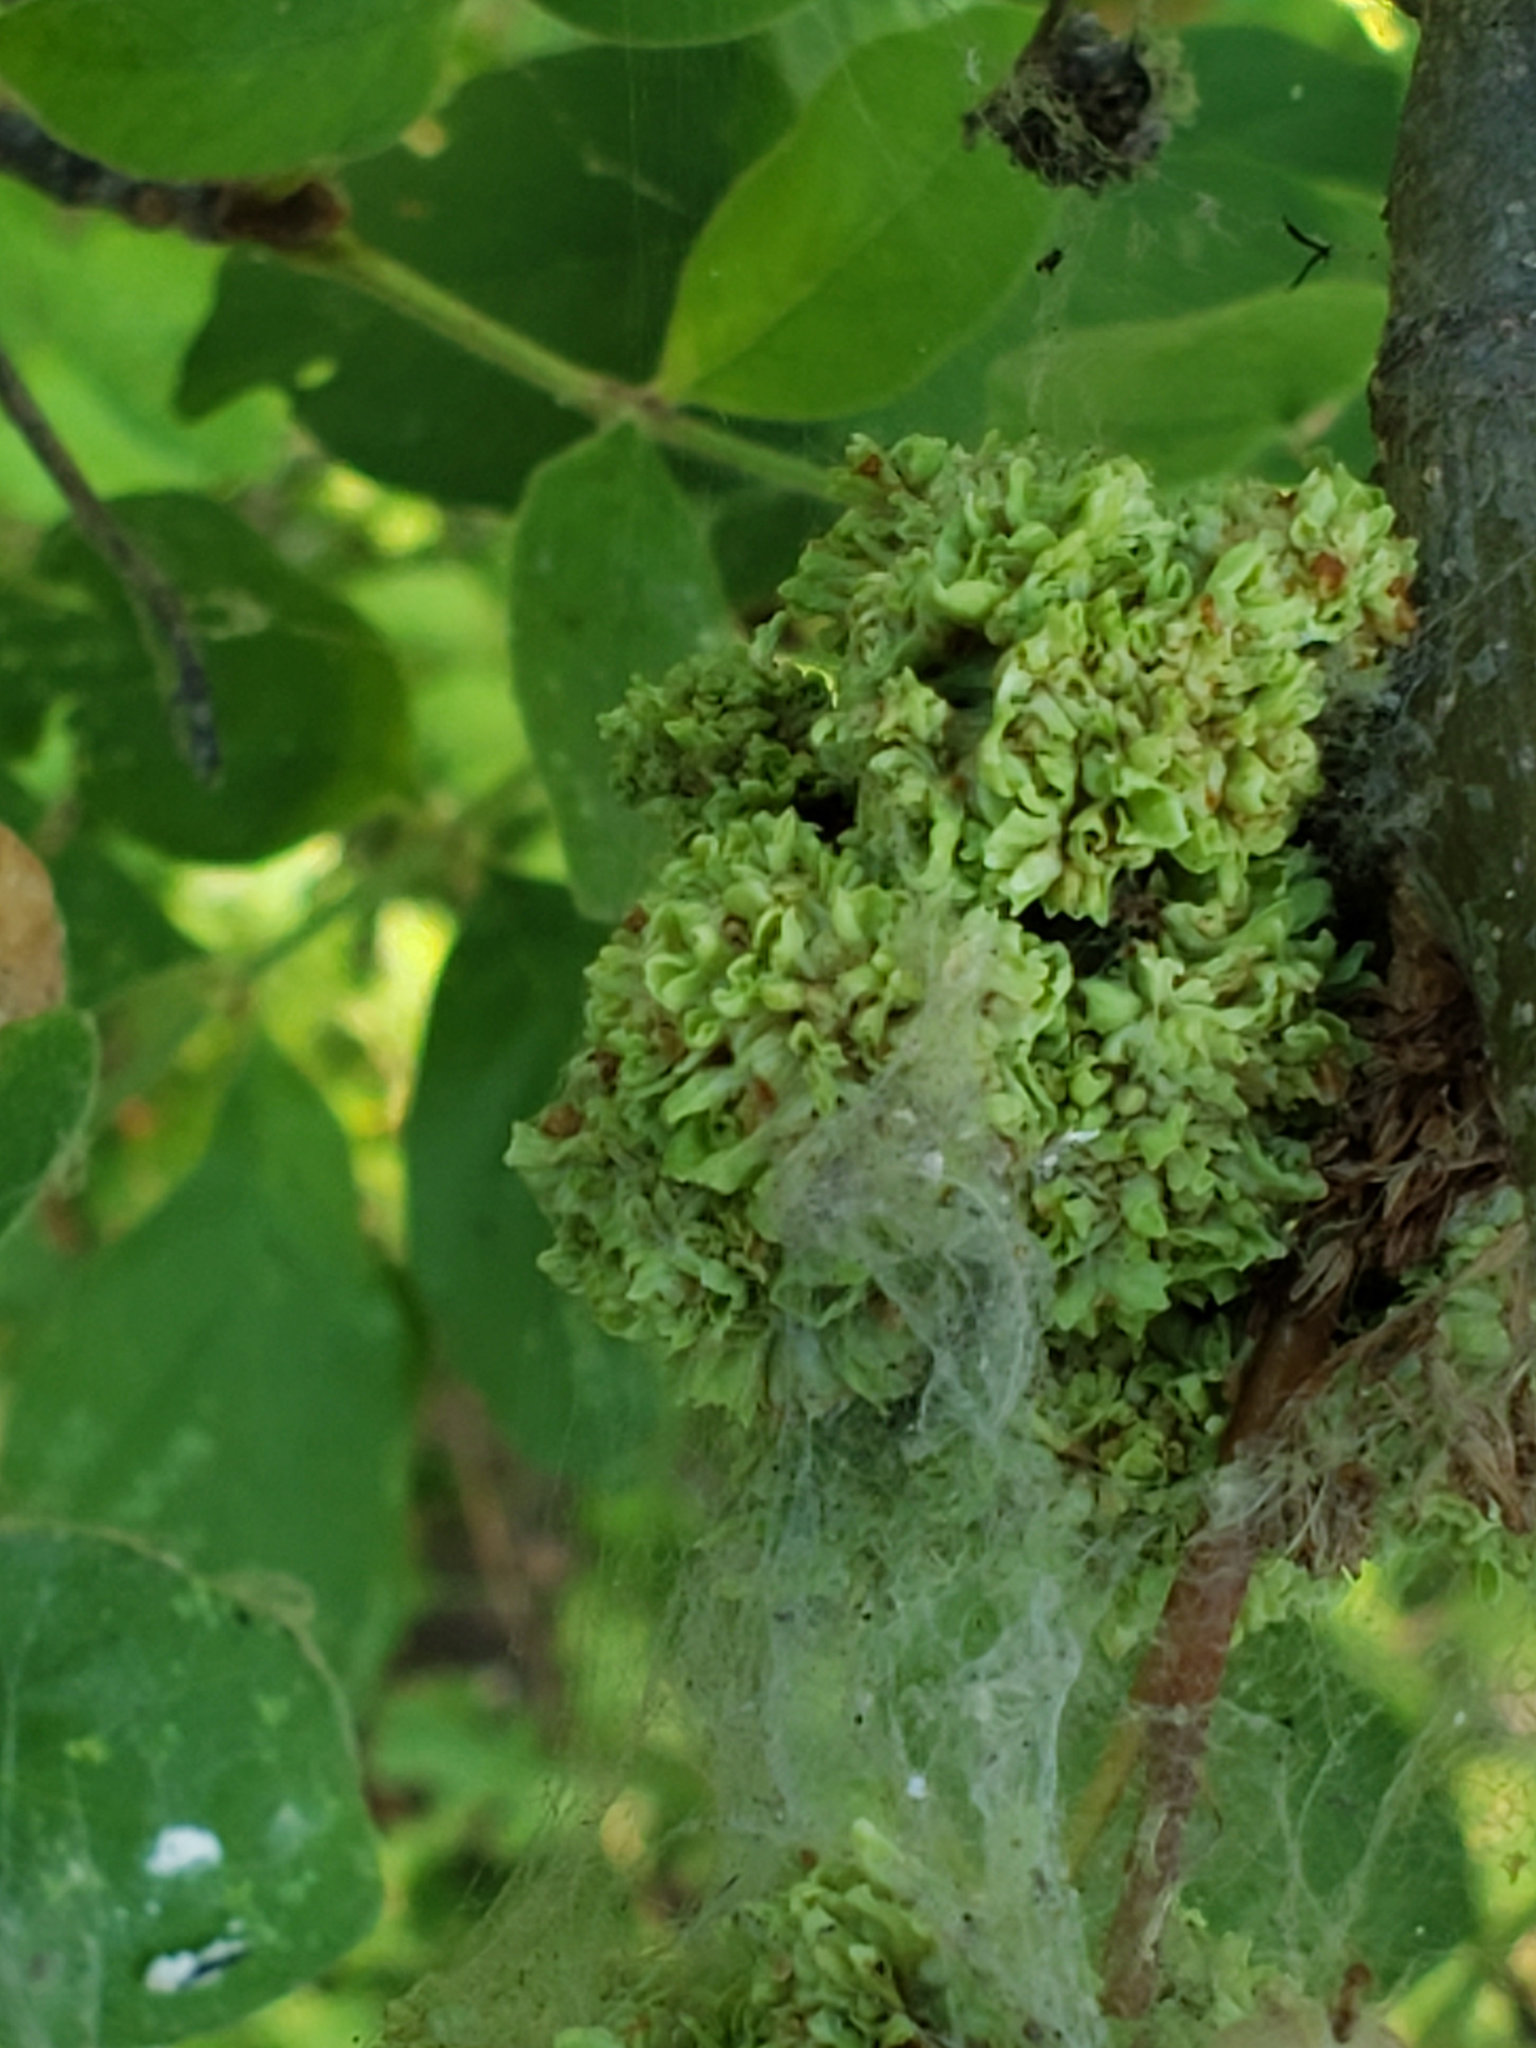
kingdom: Animalia
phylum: Arthropoda
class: Arachnida
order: Trombidiformes
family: Eriophyidae
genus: Aceria
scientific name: Aceria fraxiniflora
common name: Ash flower gall mite
